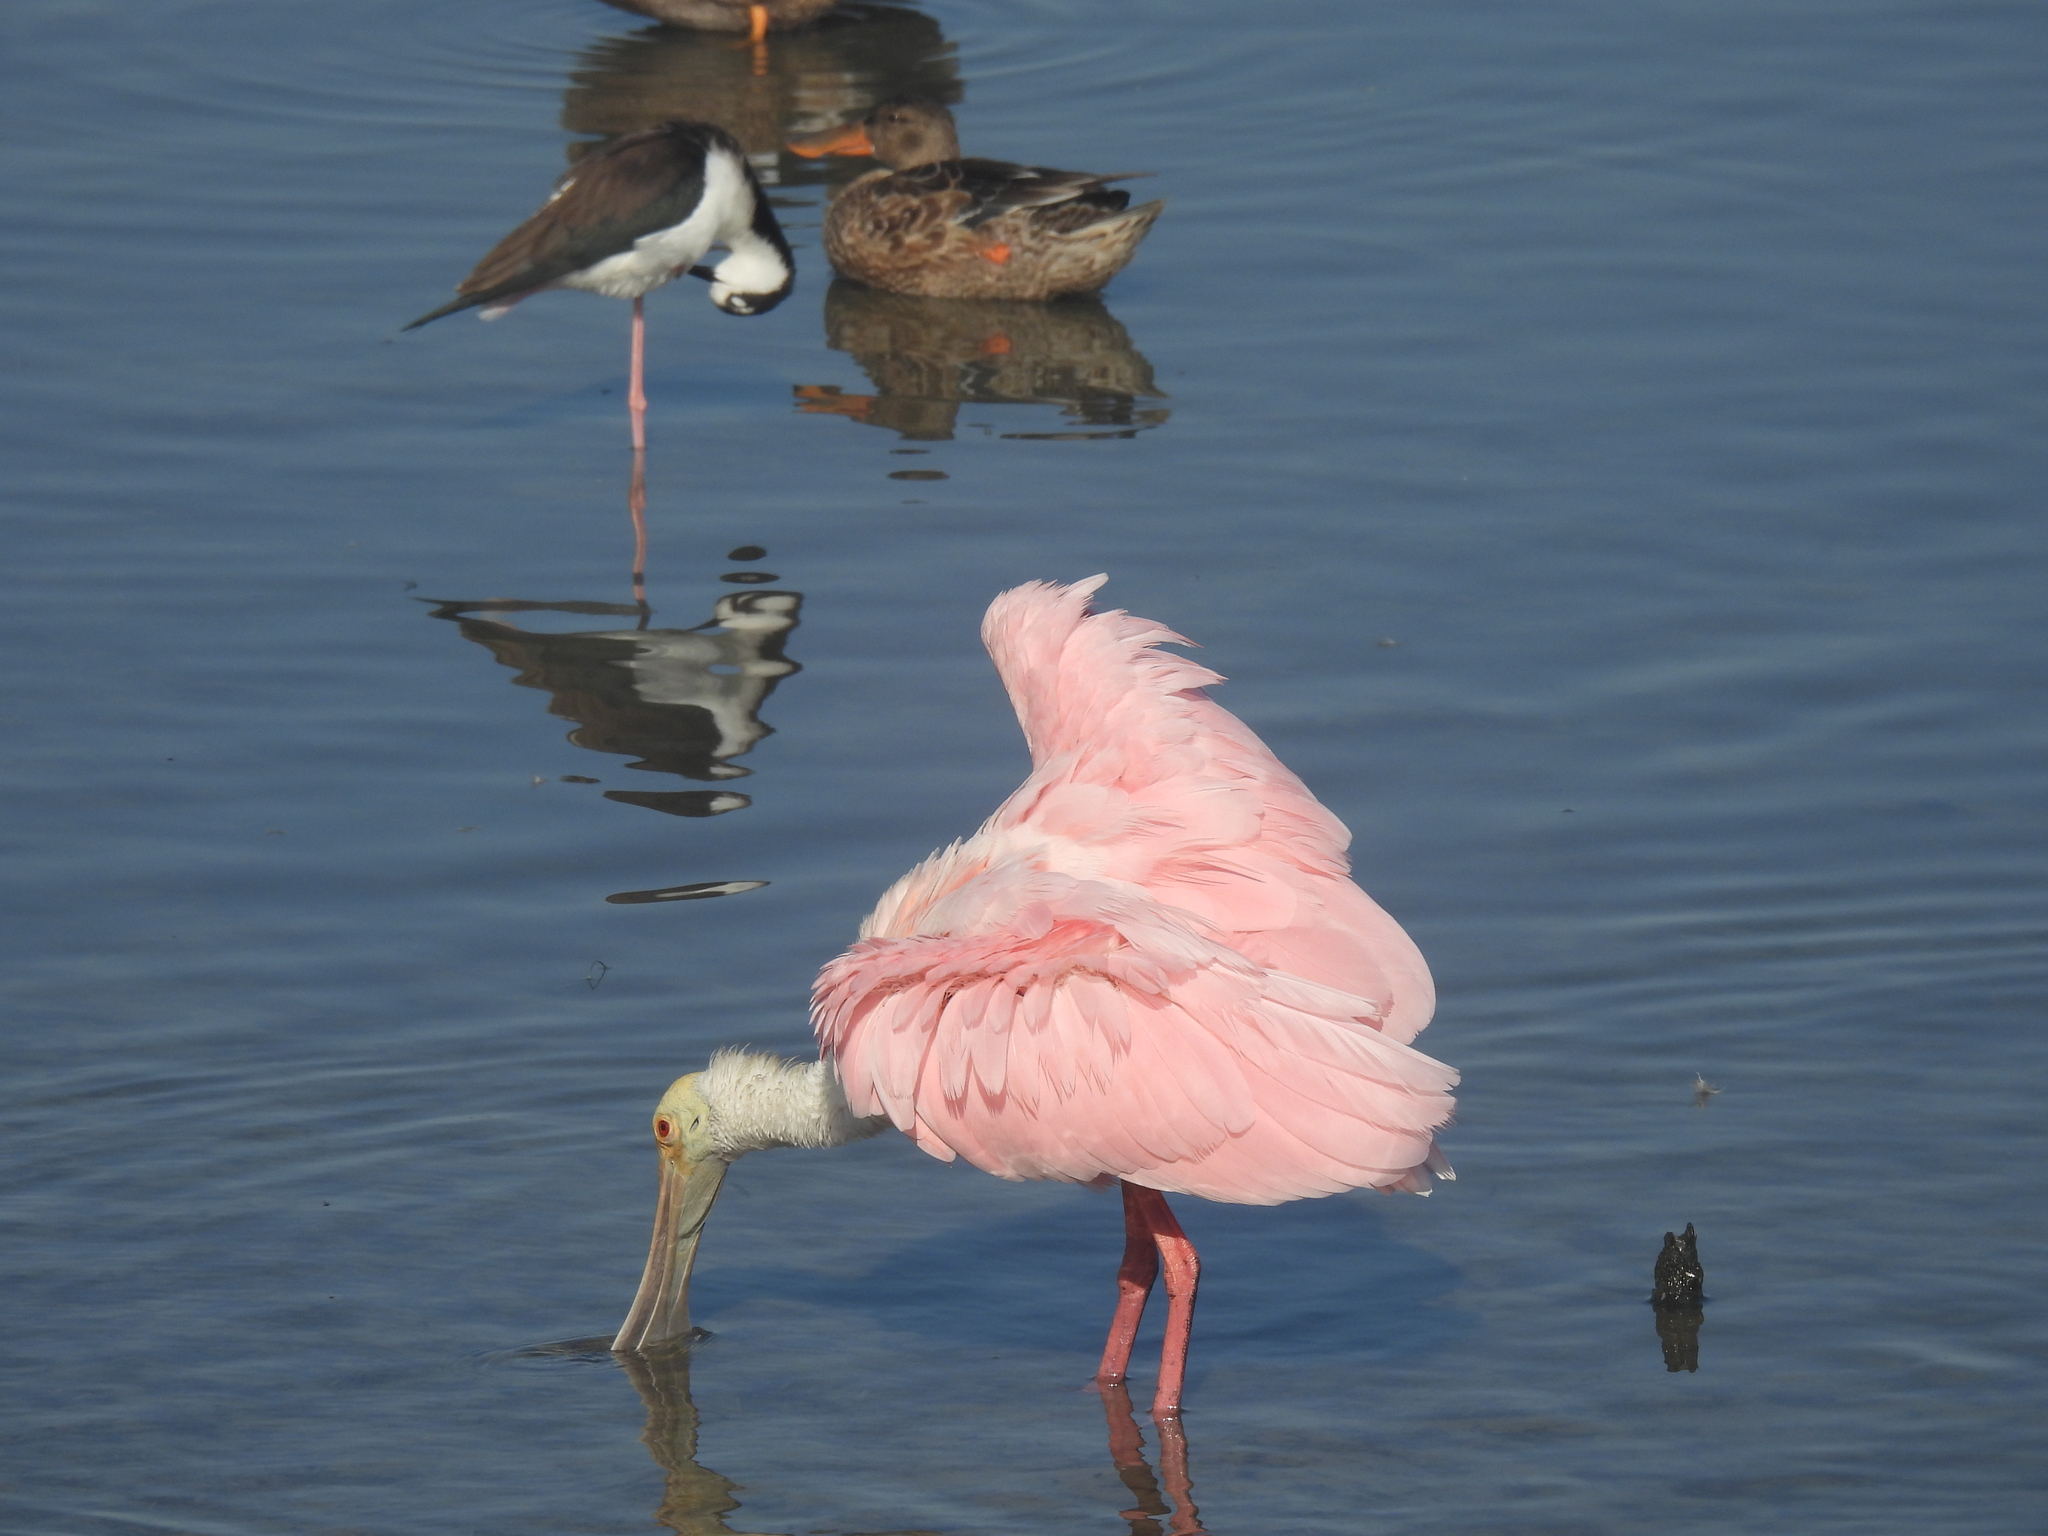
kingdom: Animalia
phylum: Chordata
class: Aves
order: Pelecaniformes
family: Threskiornithidae
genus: Platalea
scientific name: Platalea ajaja
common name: Roseate spoonbill
